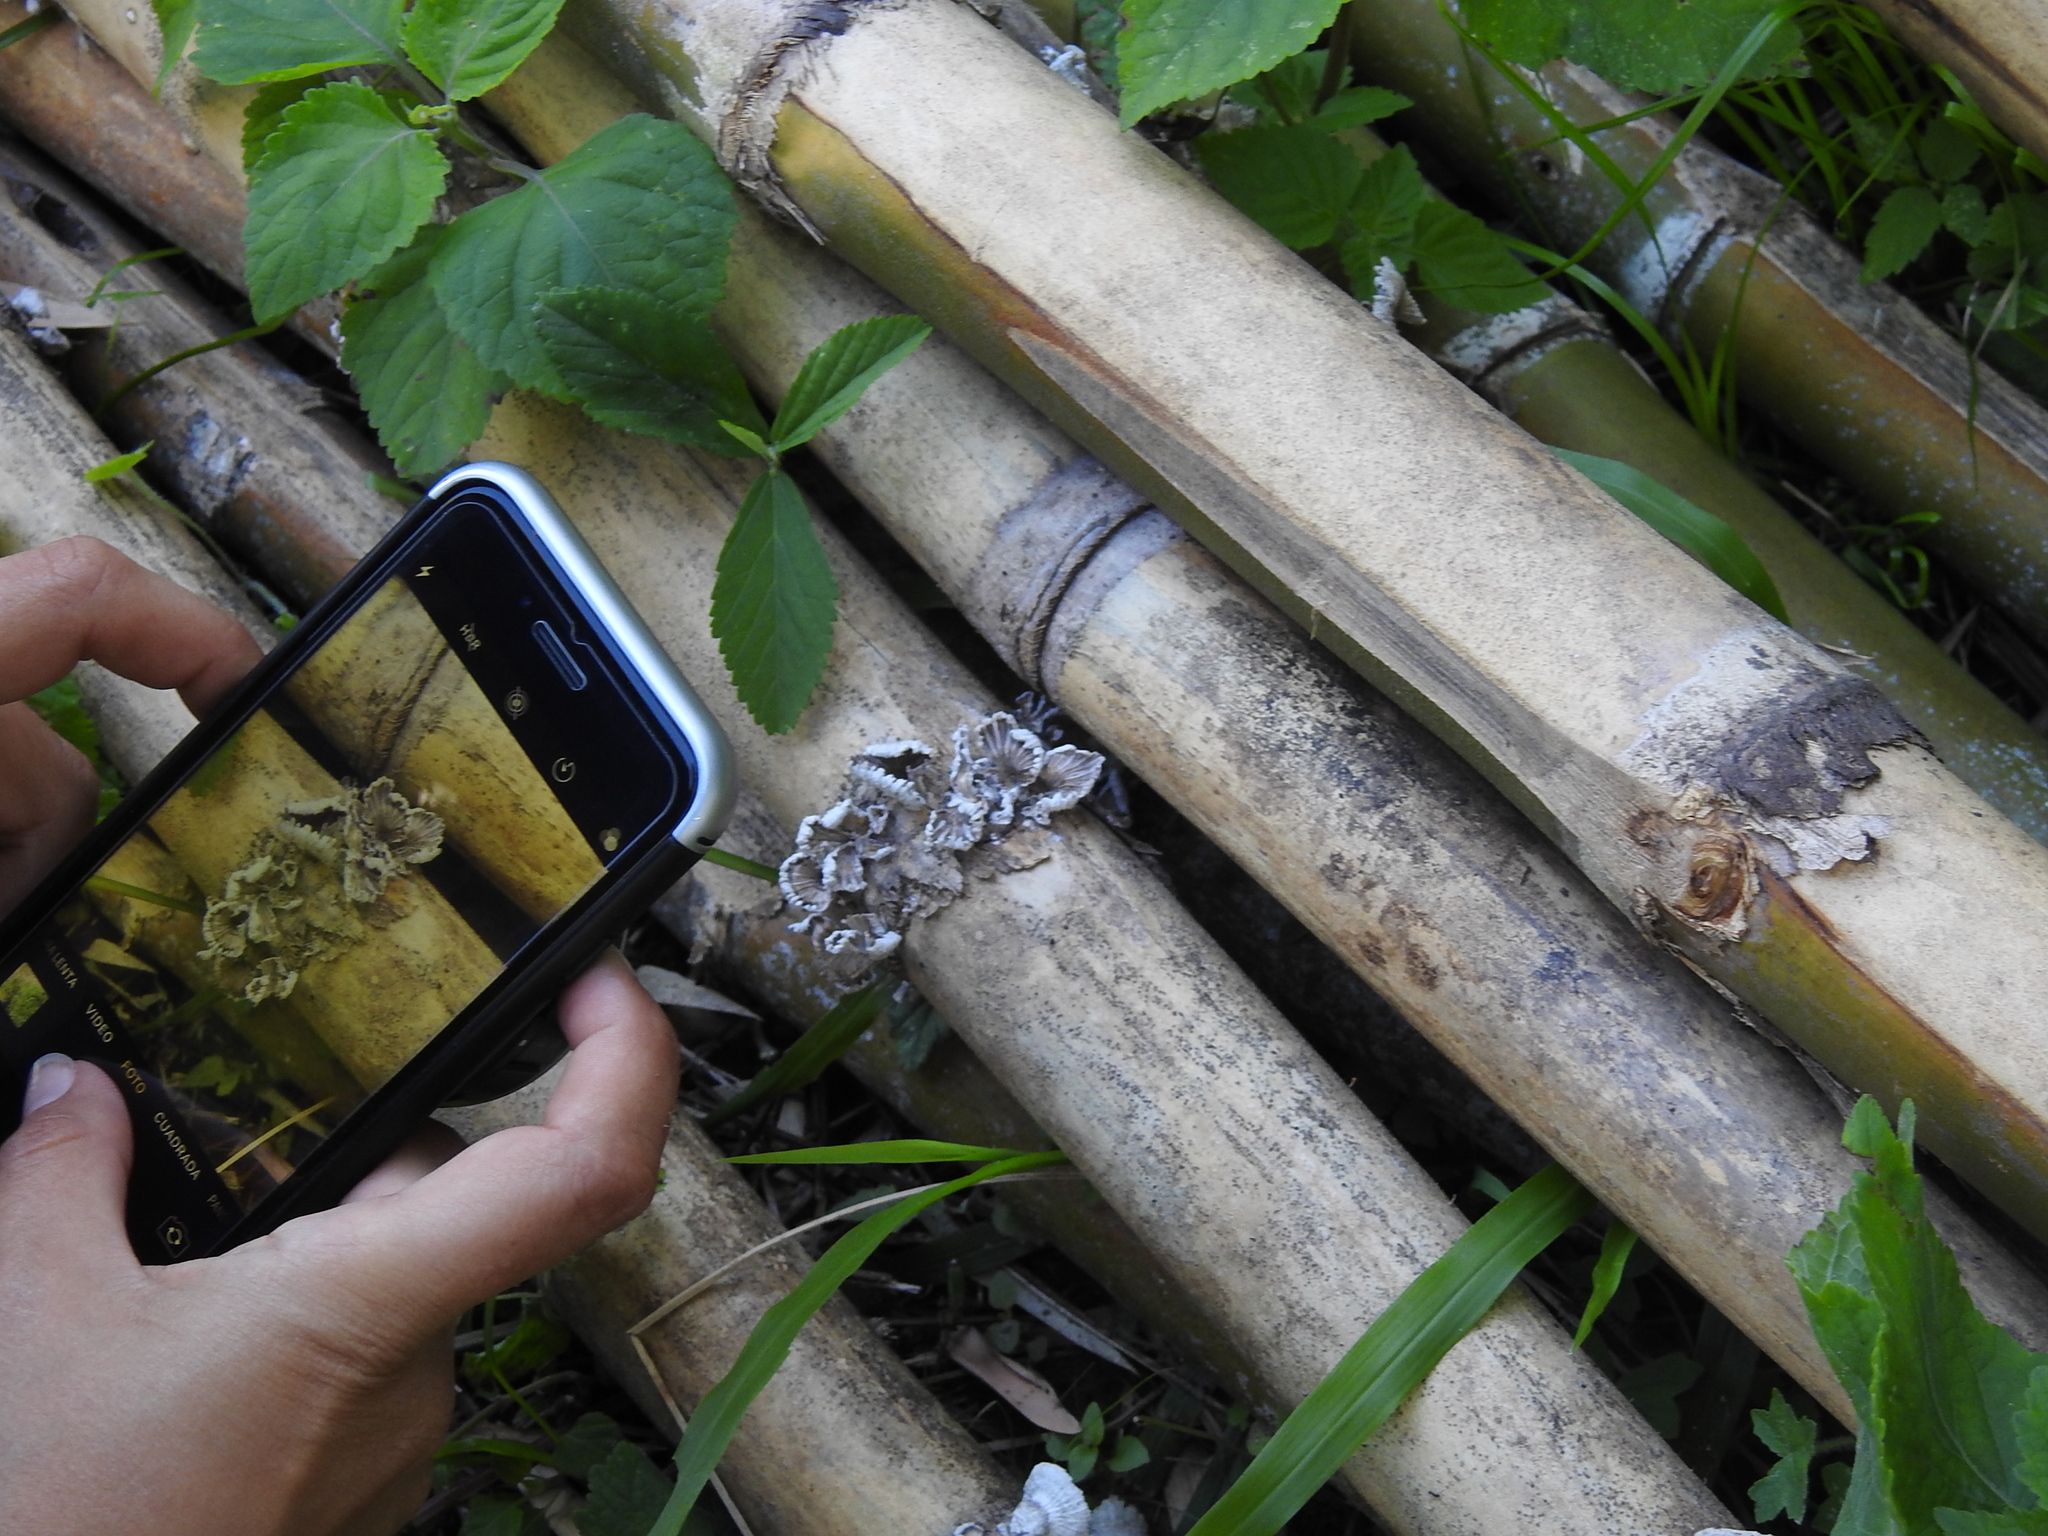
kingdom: Fungi
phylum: Basidiomycota
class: Agaricomycetes
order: Agaricales
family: Schizophyllaceae
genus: Schizophyllum
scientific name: Schizophyllum commune
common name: Common porecrust
